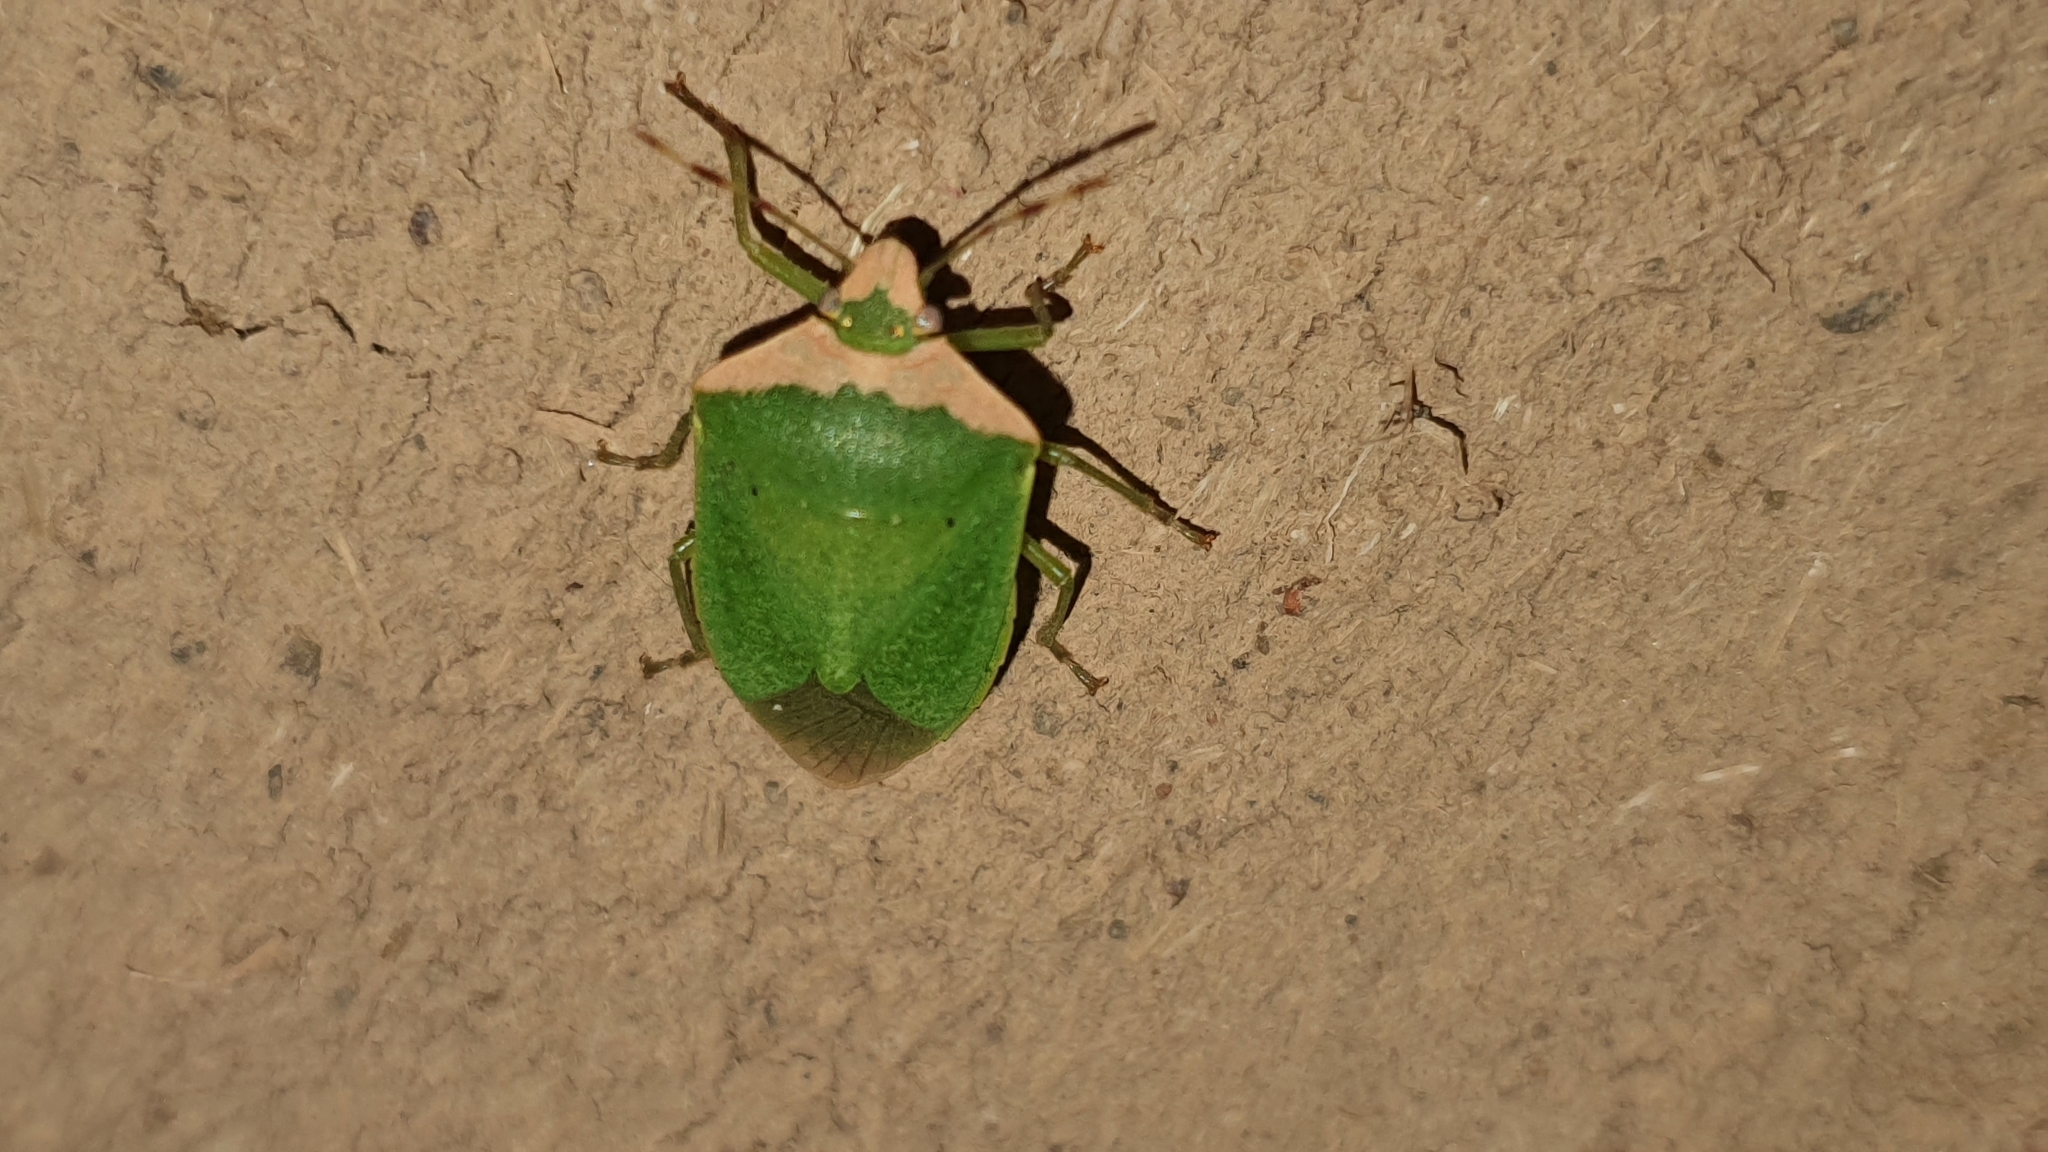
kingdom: Animalia
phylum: Arthropoda
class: Insecta
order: Hemiptera
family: Pentatomidae
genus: Nezara
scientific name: Nezara viridula
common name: Southern green stink bug
